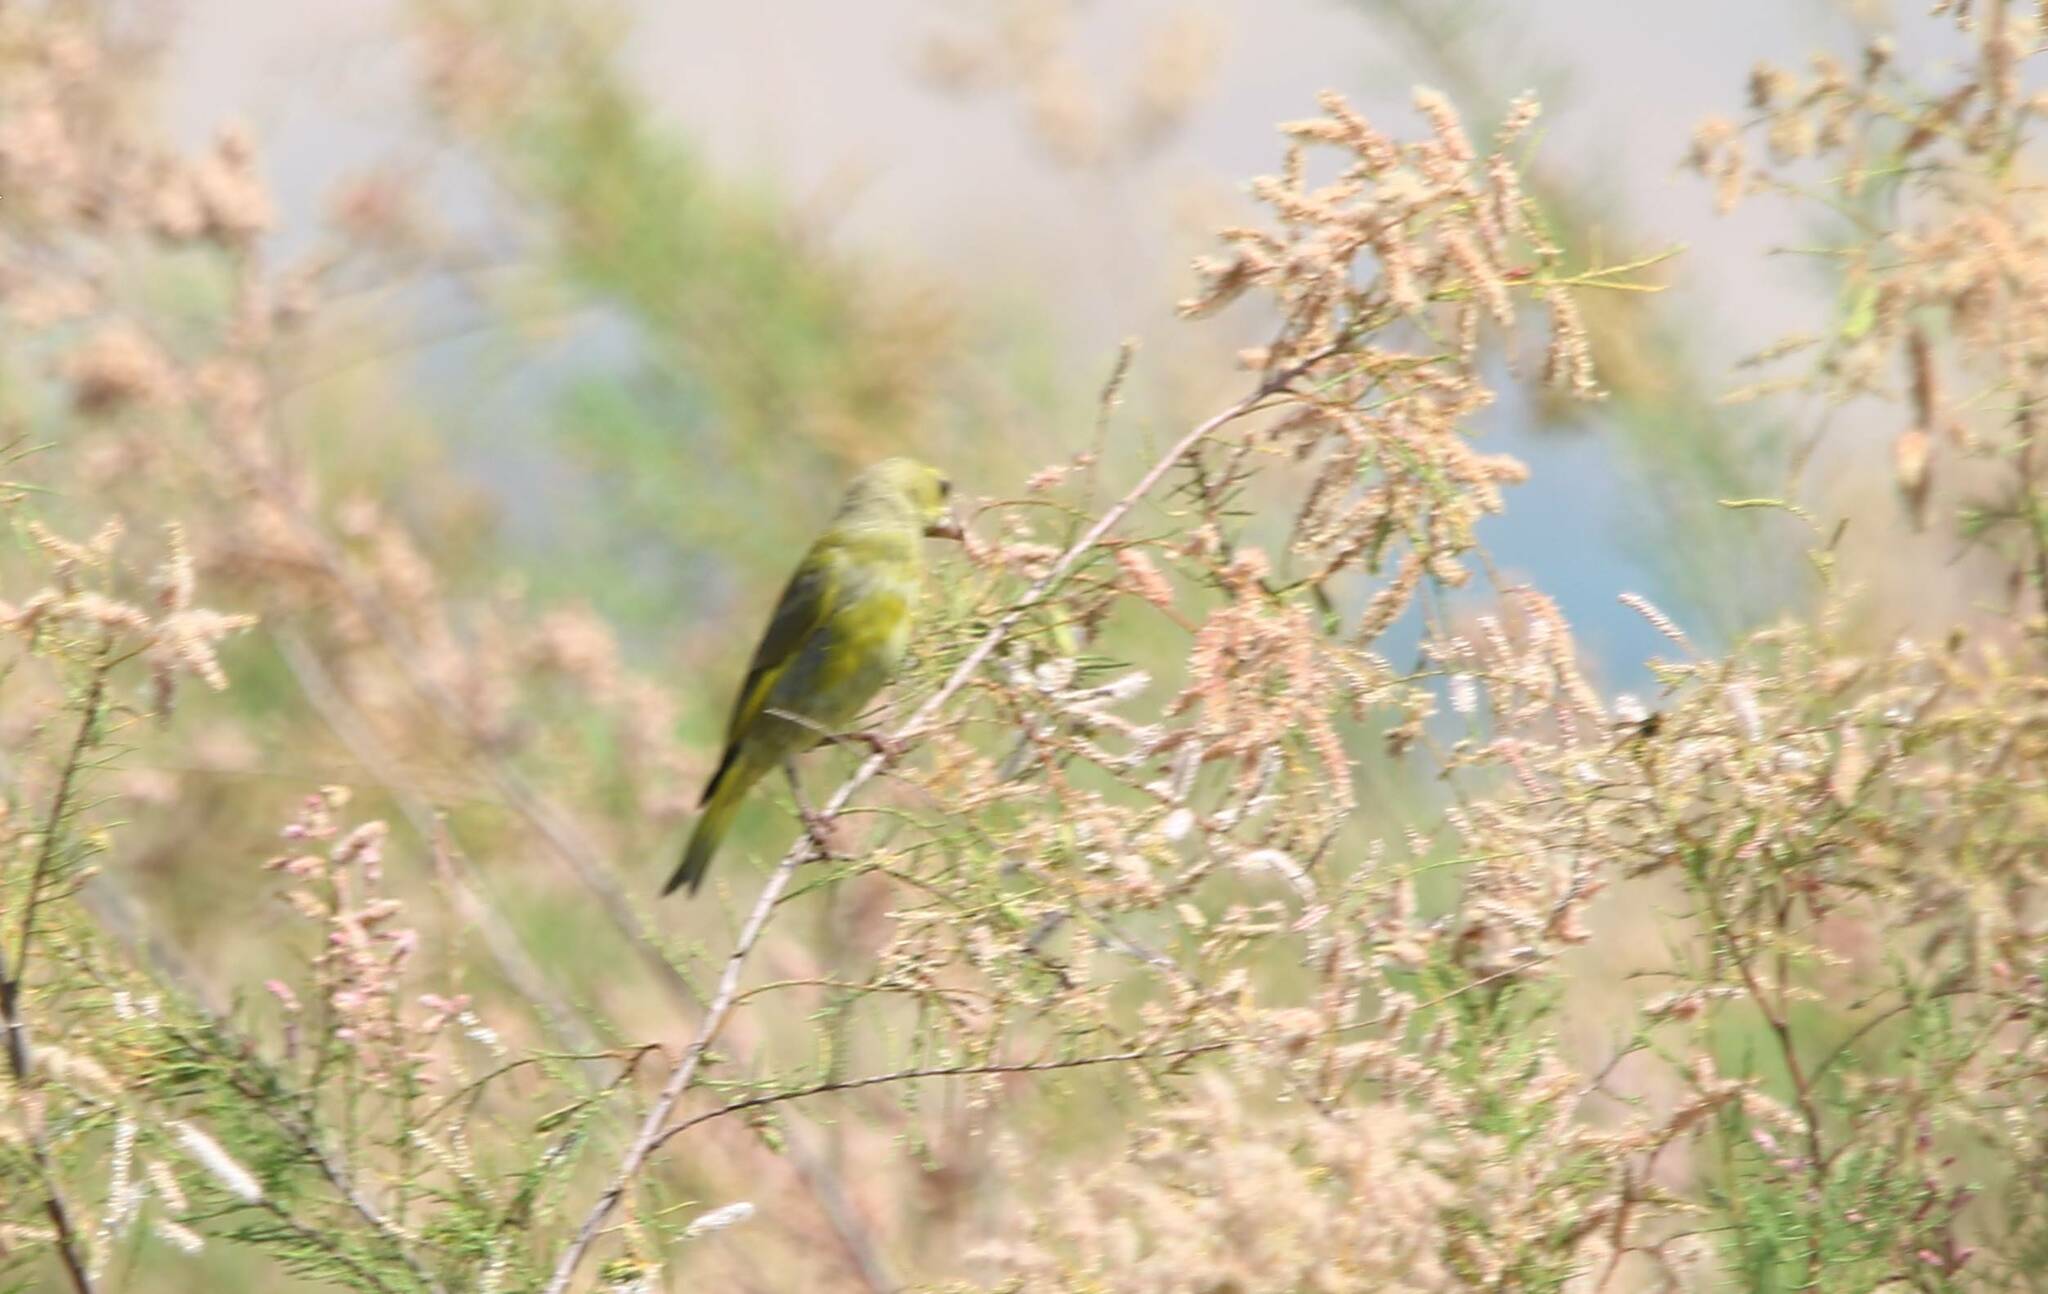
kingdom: Plantae
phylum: Tracheophyta
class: Liliopsida
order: Poales
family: Poaceae
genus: Chloris
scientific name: Chloris chloris
